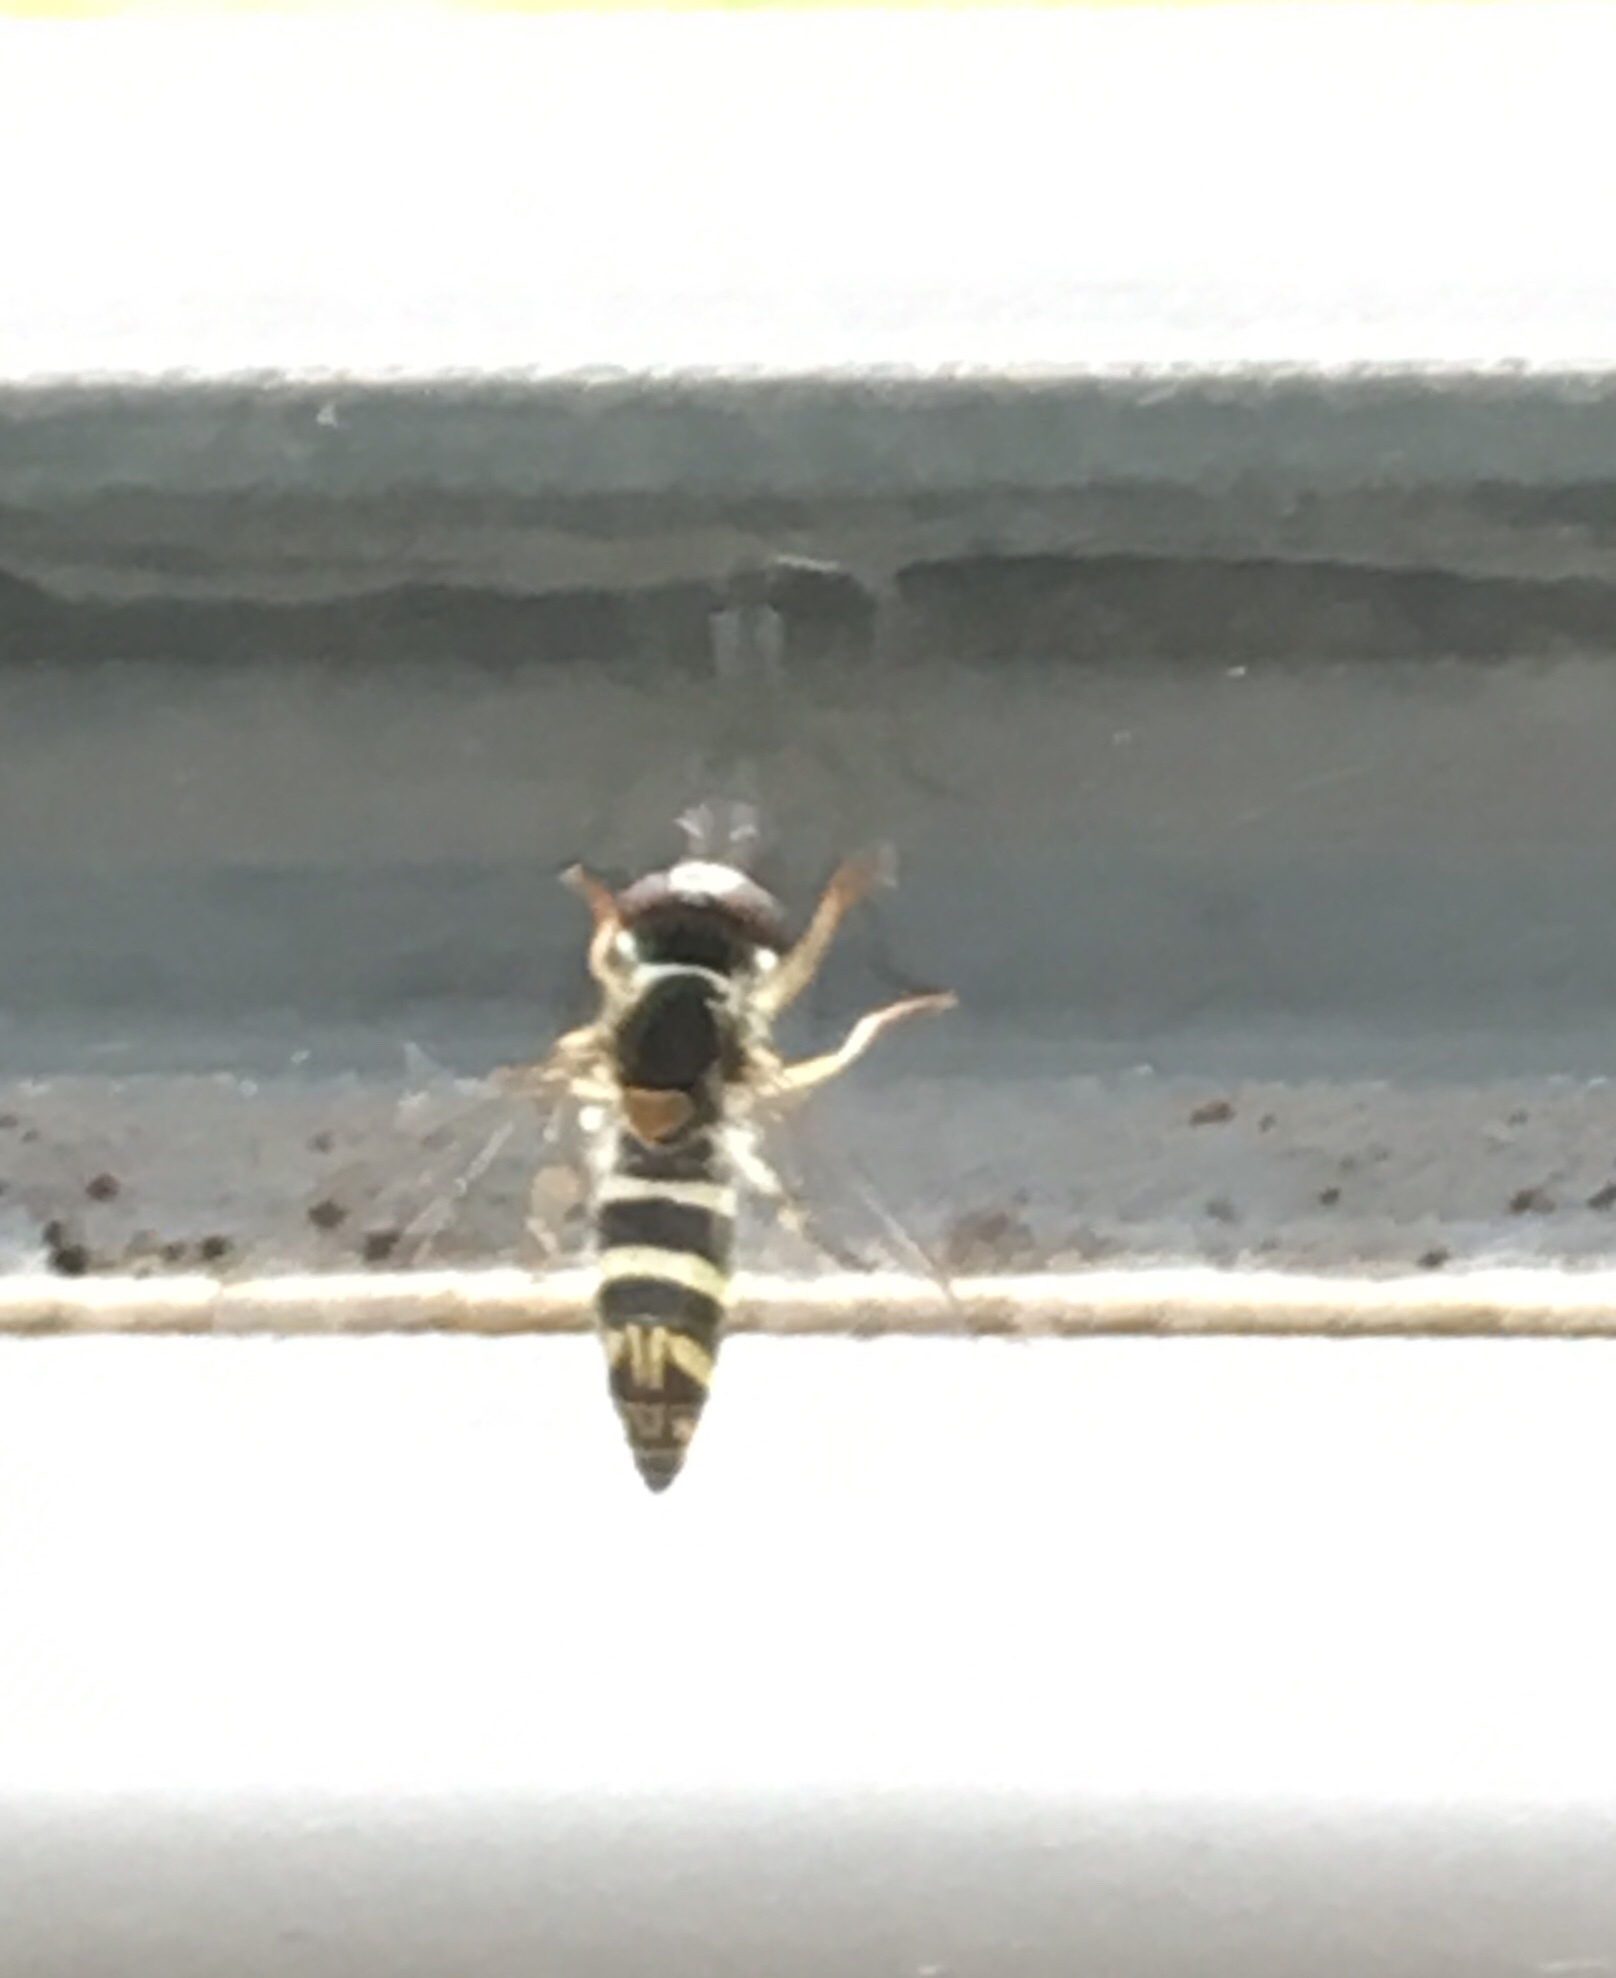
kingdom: Animalia
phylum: Arthropoda
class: Insecta
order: Diptera
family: Syrphidae
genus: Allograpta
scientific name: Allograpta
